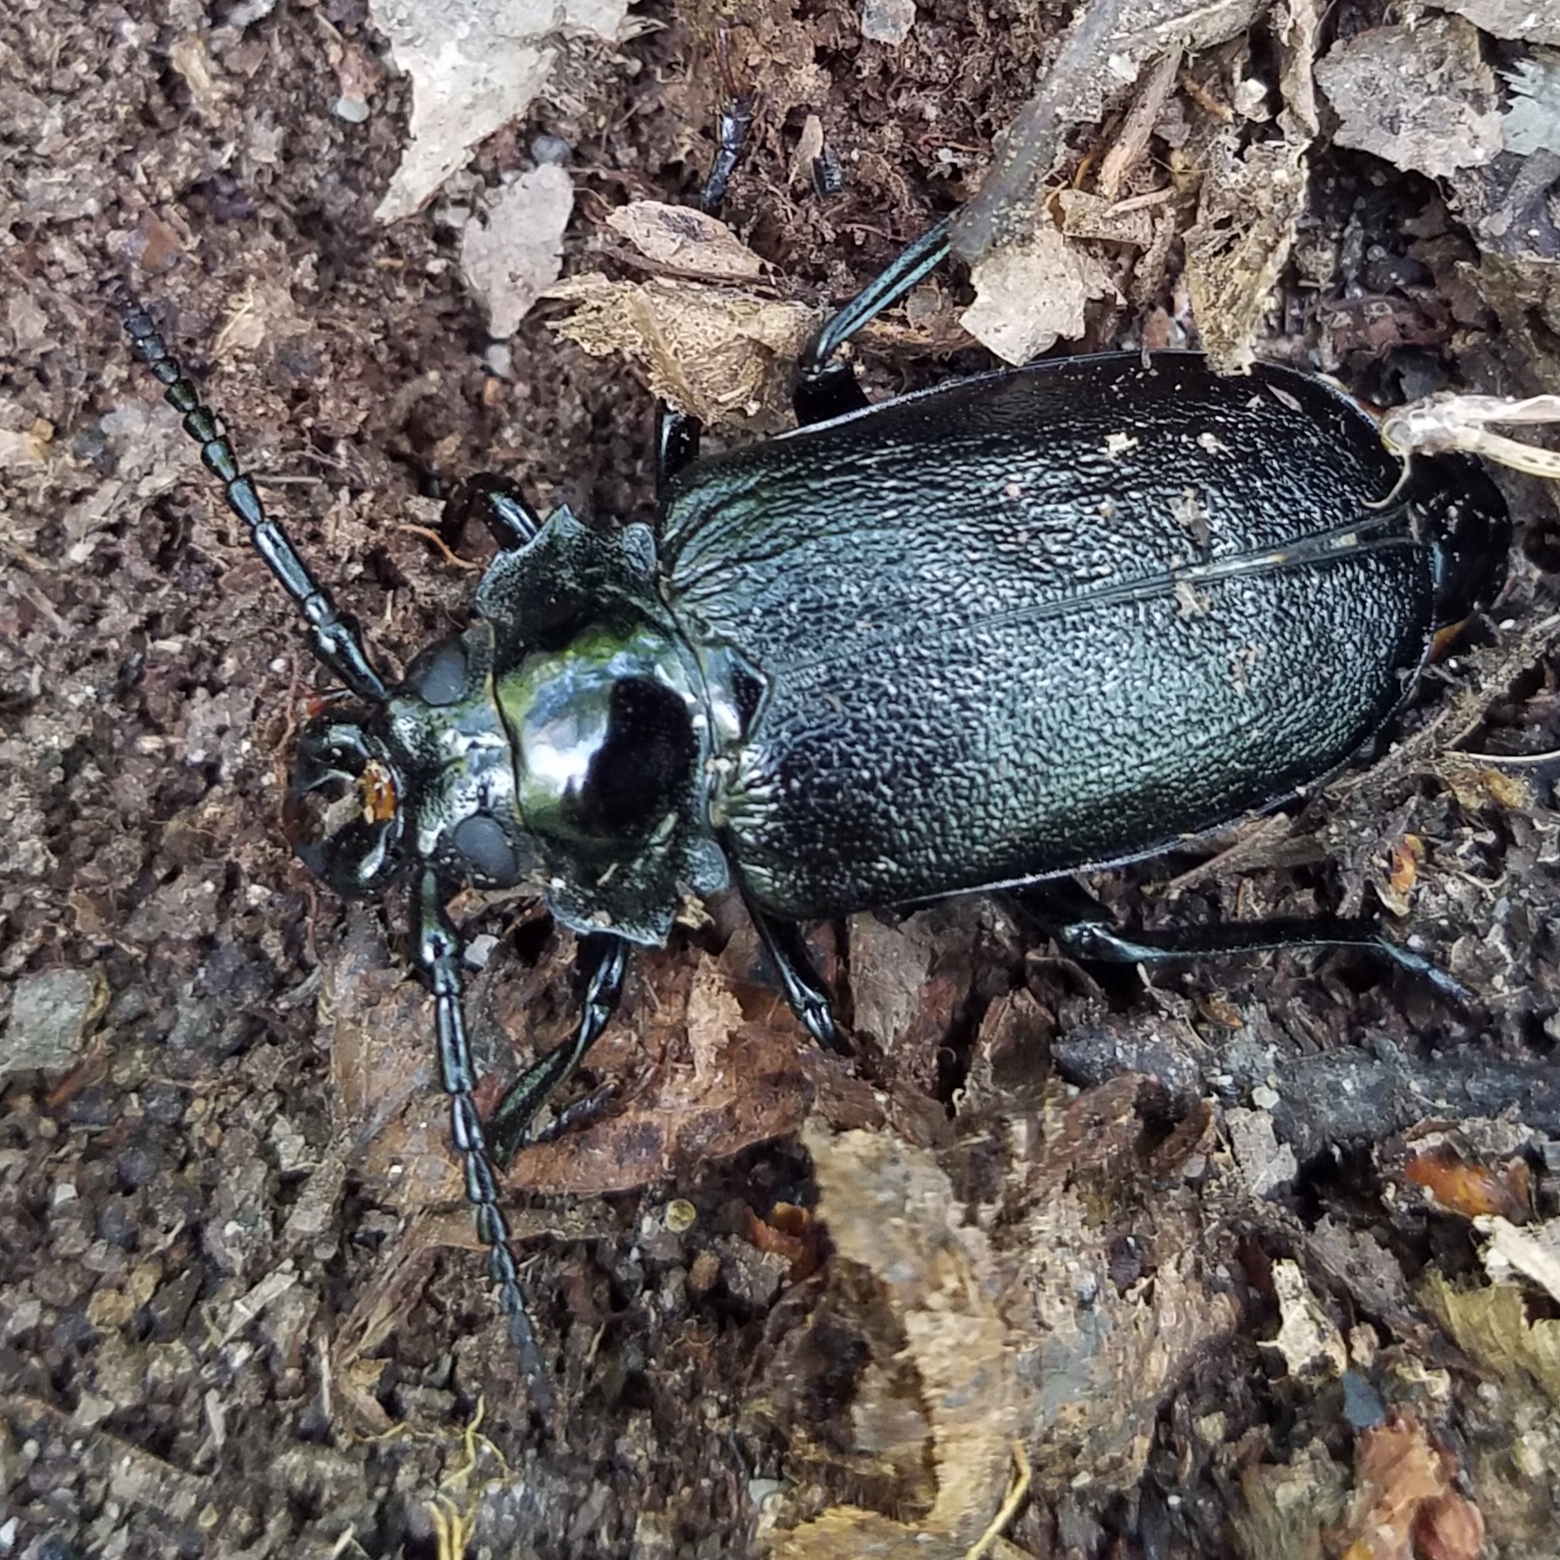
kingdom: Animalia
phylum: Arthropoda
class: Insecta
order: Coleoptera
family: Cerambycidae
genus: Prionus
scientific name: Prionus laticollis
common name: Broad necked prionus
